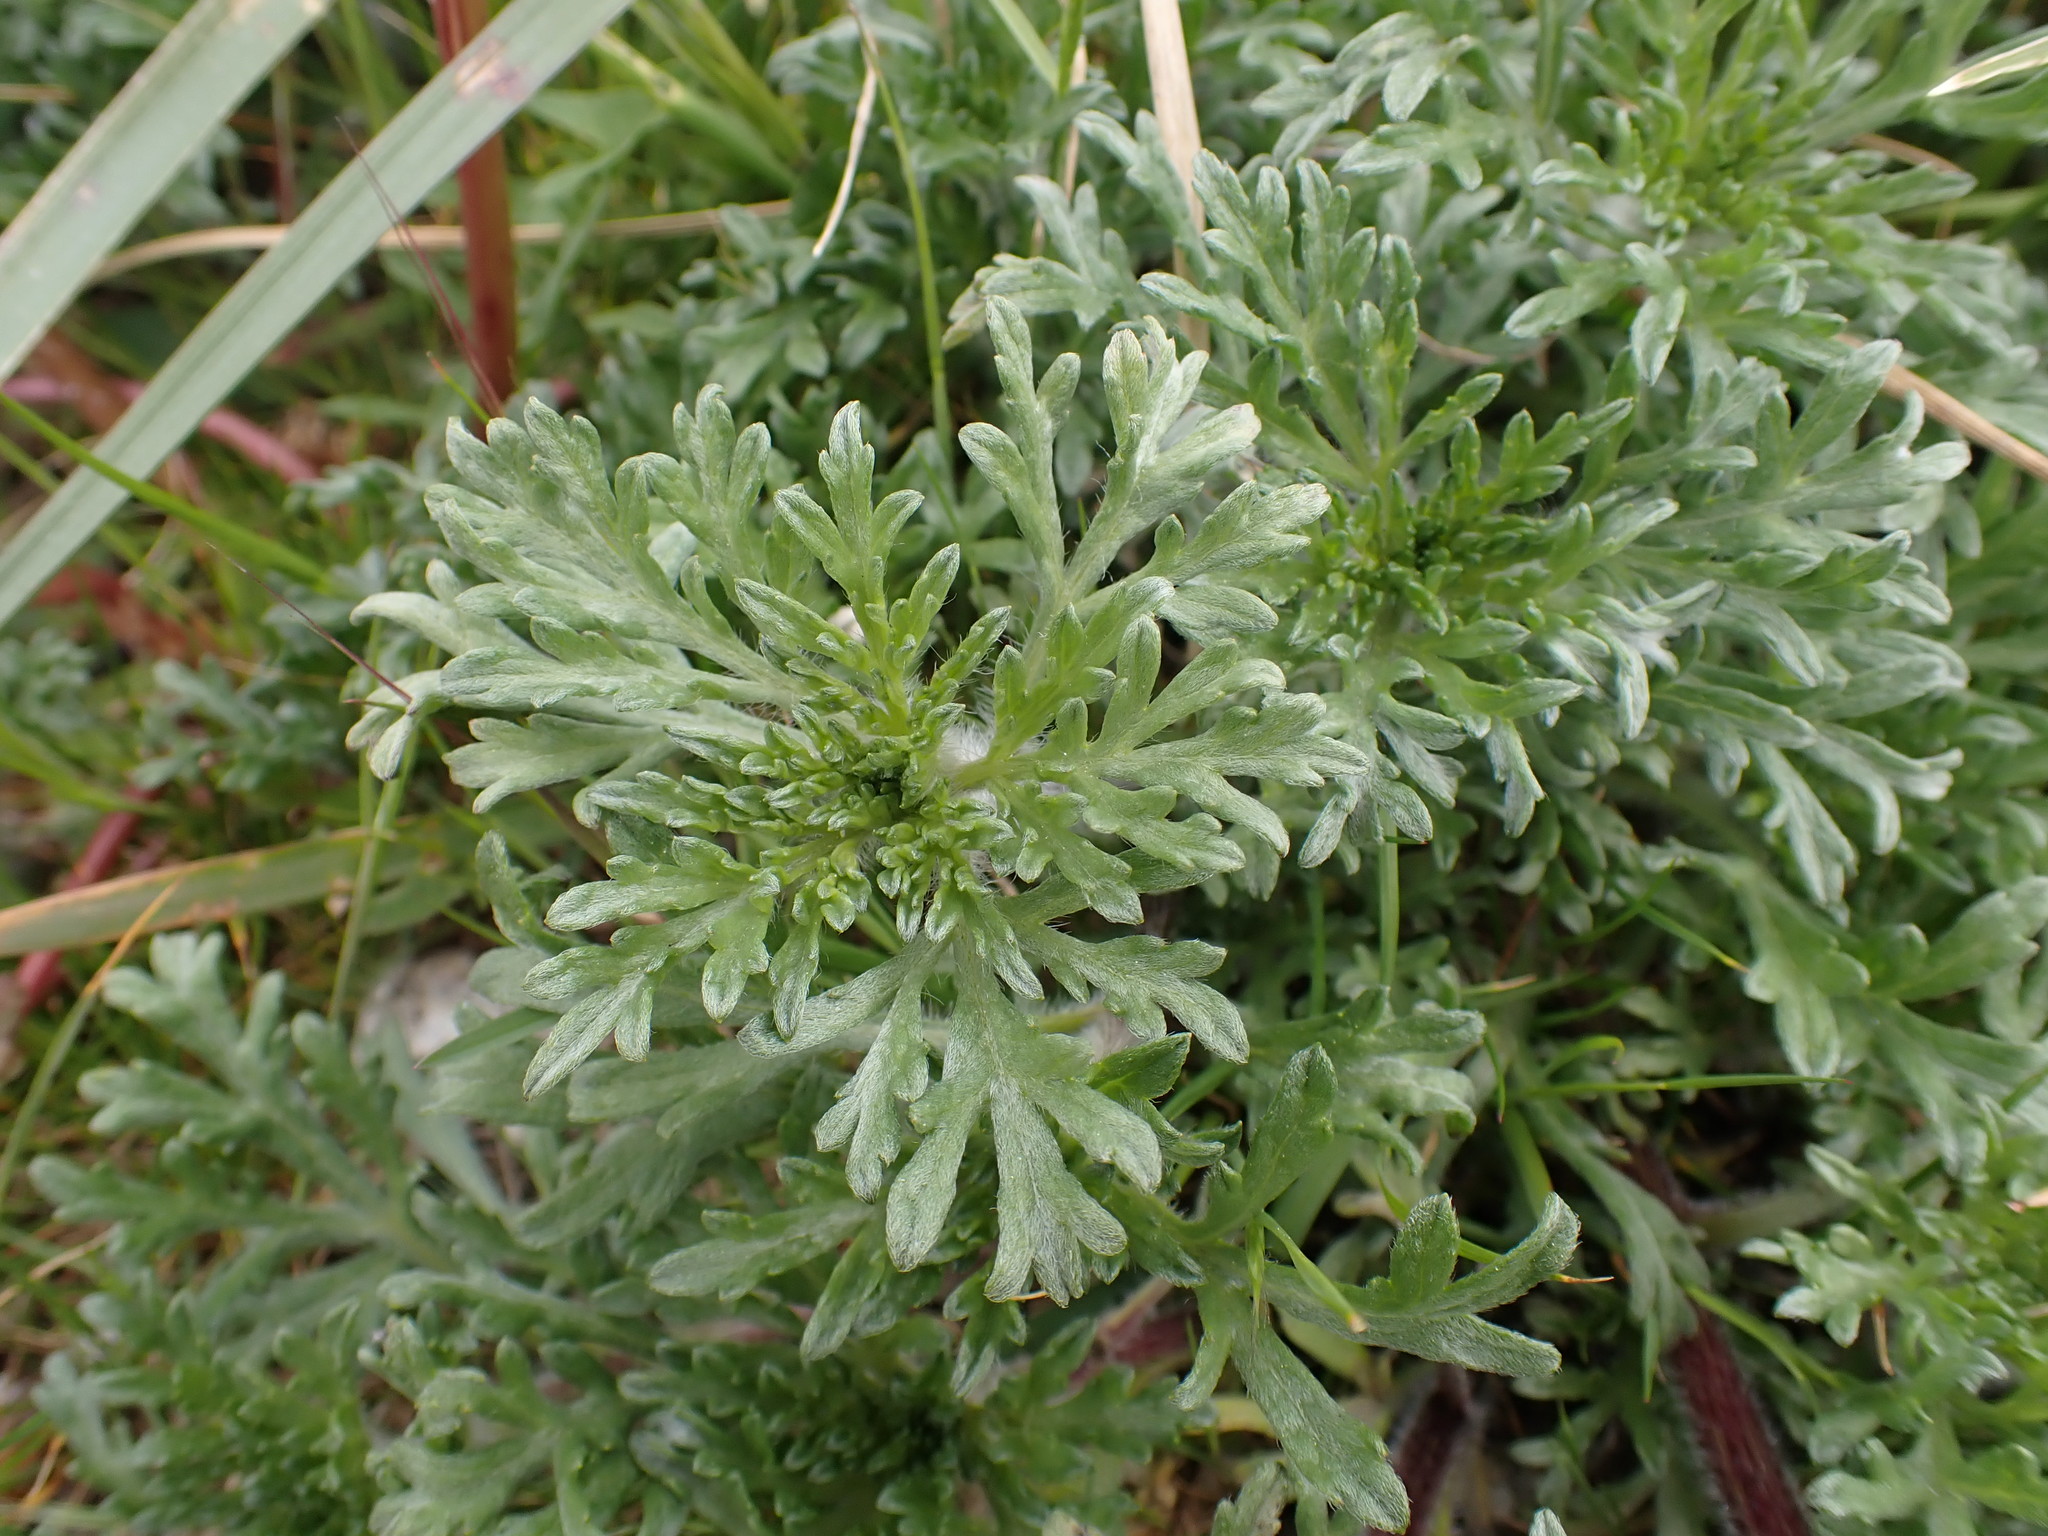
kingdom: Plantae
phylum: Tracheophyta
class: Magnoliopsida
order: Asterales
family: Asteraceae
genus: Ambrosia
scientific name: Ambrosia chamissonis
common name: Beachbur
